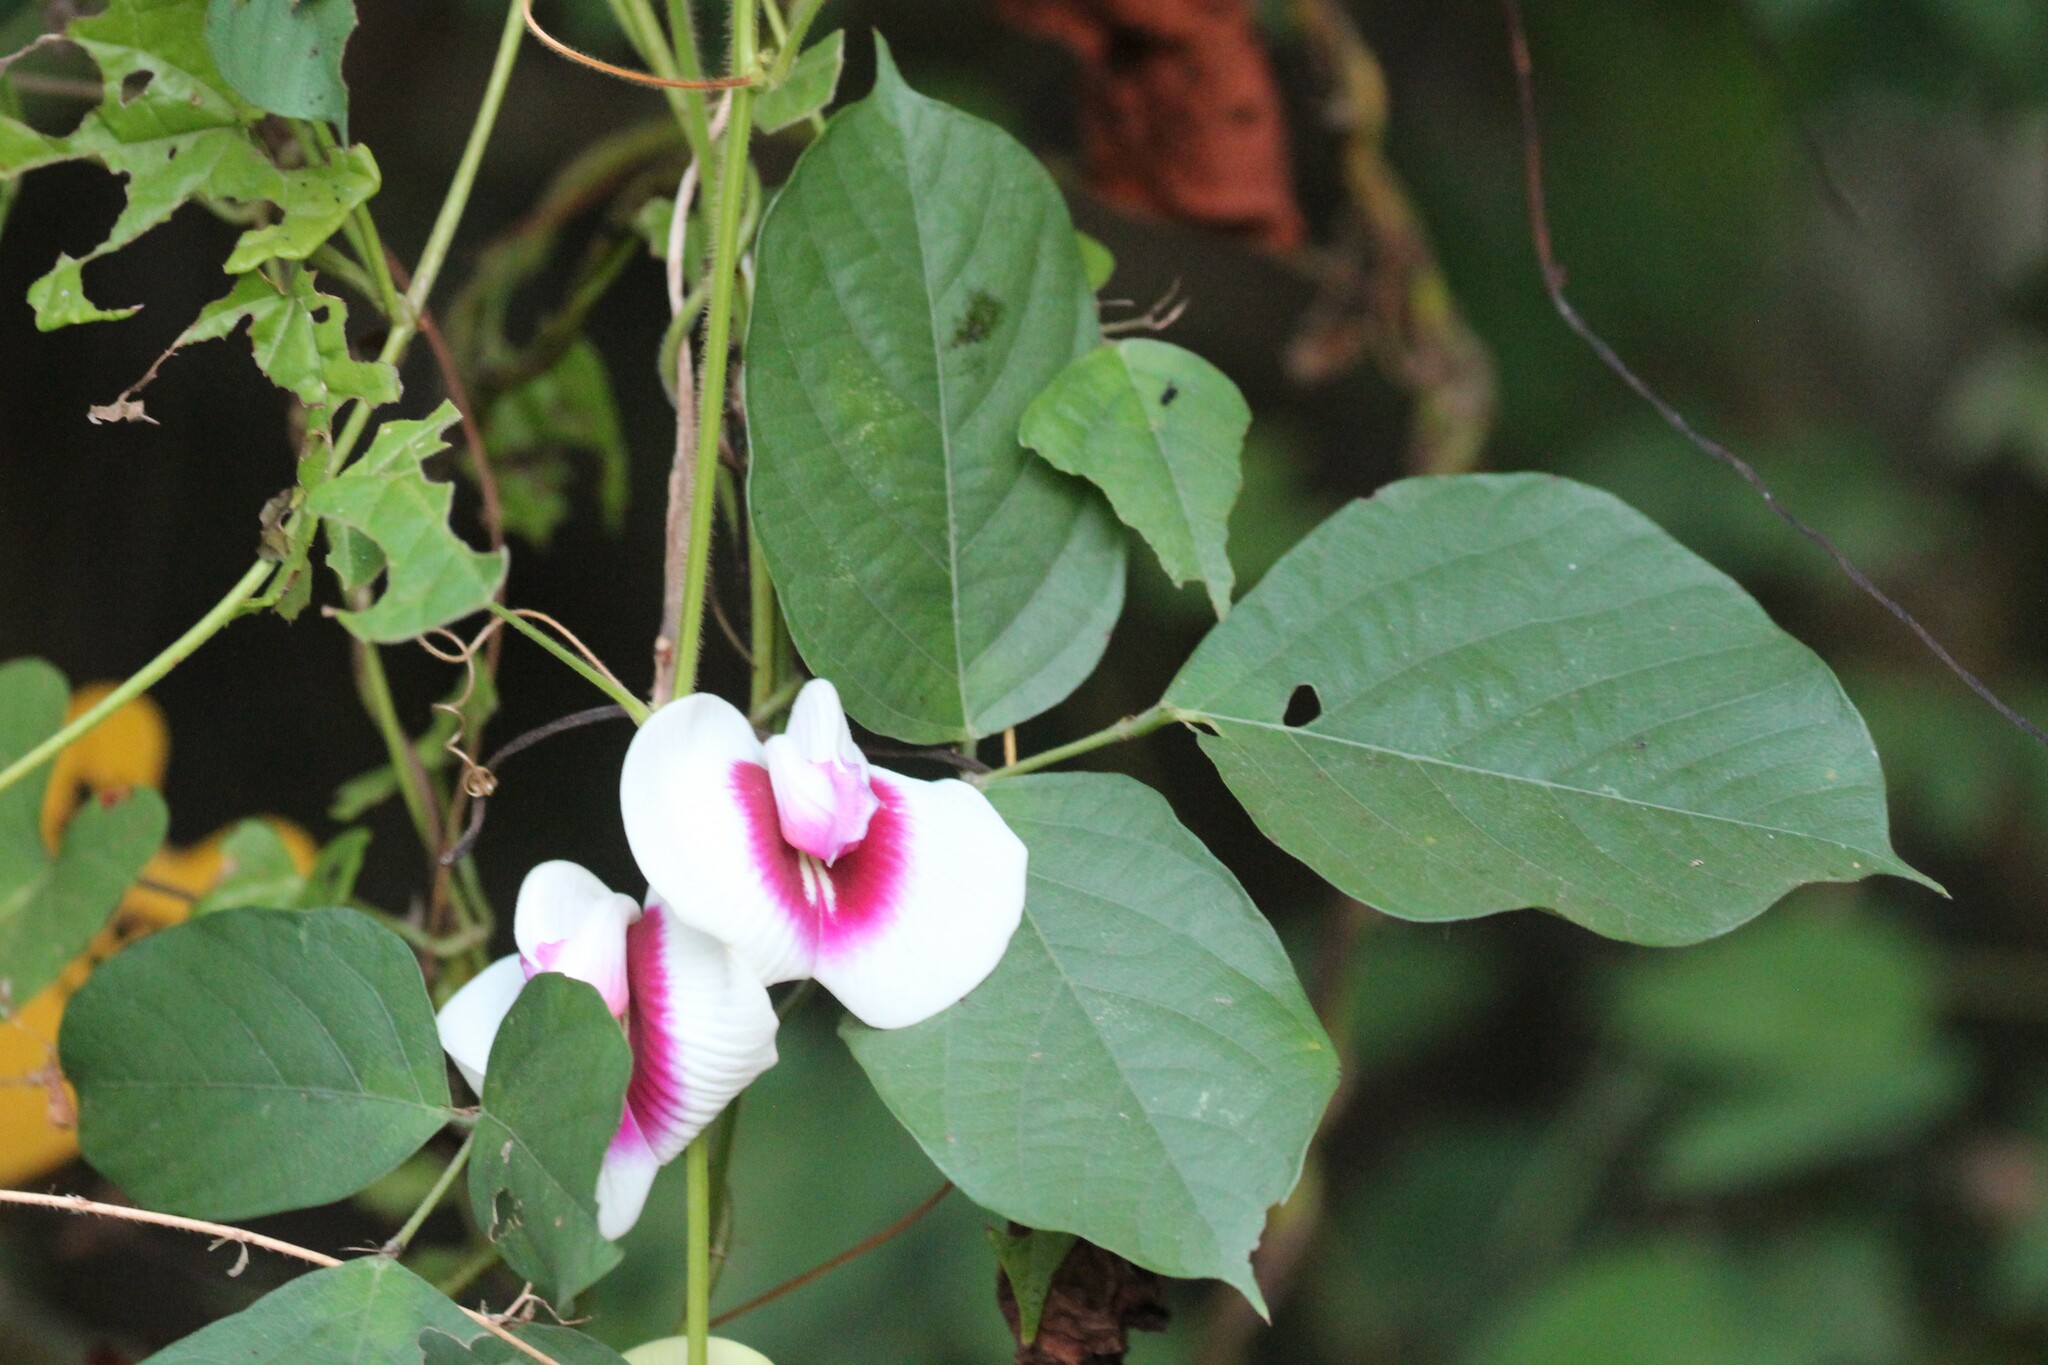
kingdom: Plantae
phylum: Tracheophyta
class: Magnoliopsida
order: Fabales
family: Fabaceae
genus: Centrosema
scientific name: Centrosema plumieri
